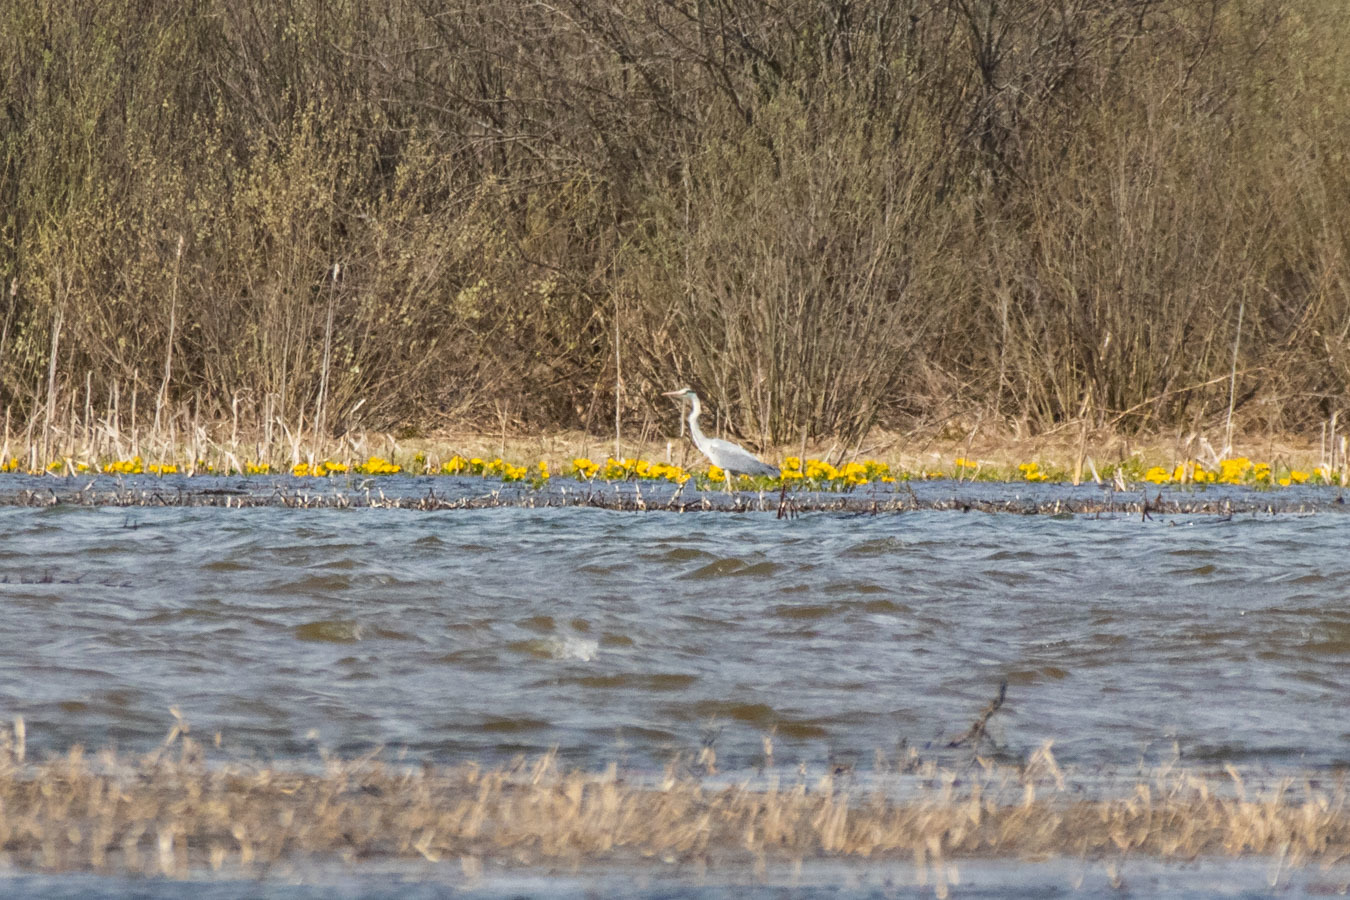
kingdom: Animalia
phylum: Chordata
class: Aves
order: Pelecaniformes
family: Ardeidae
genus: Ardea
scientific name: Ardea cinerea
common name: Grey heron
